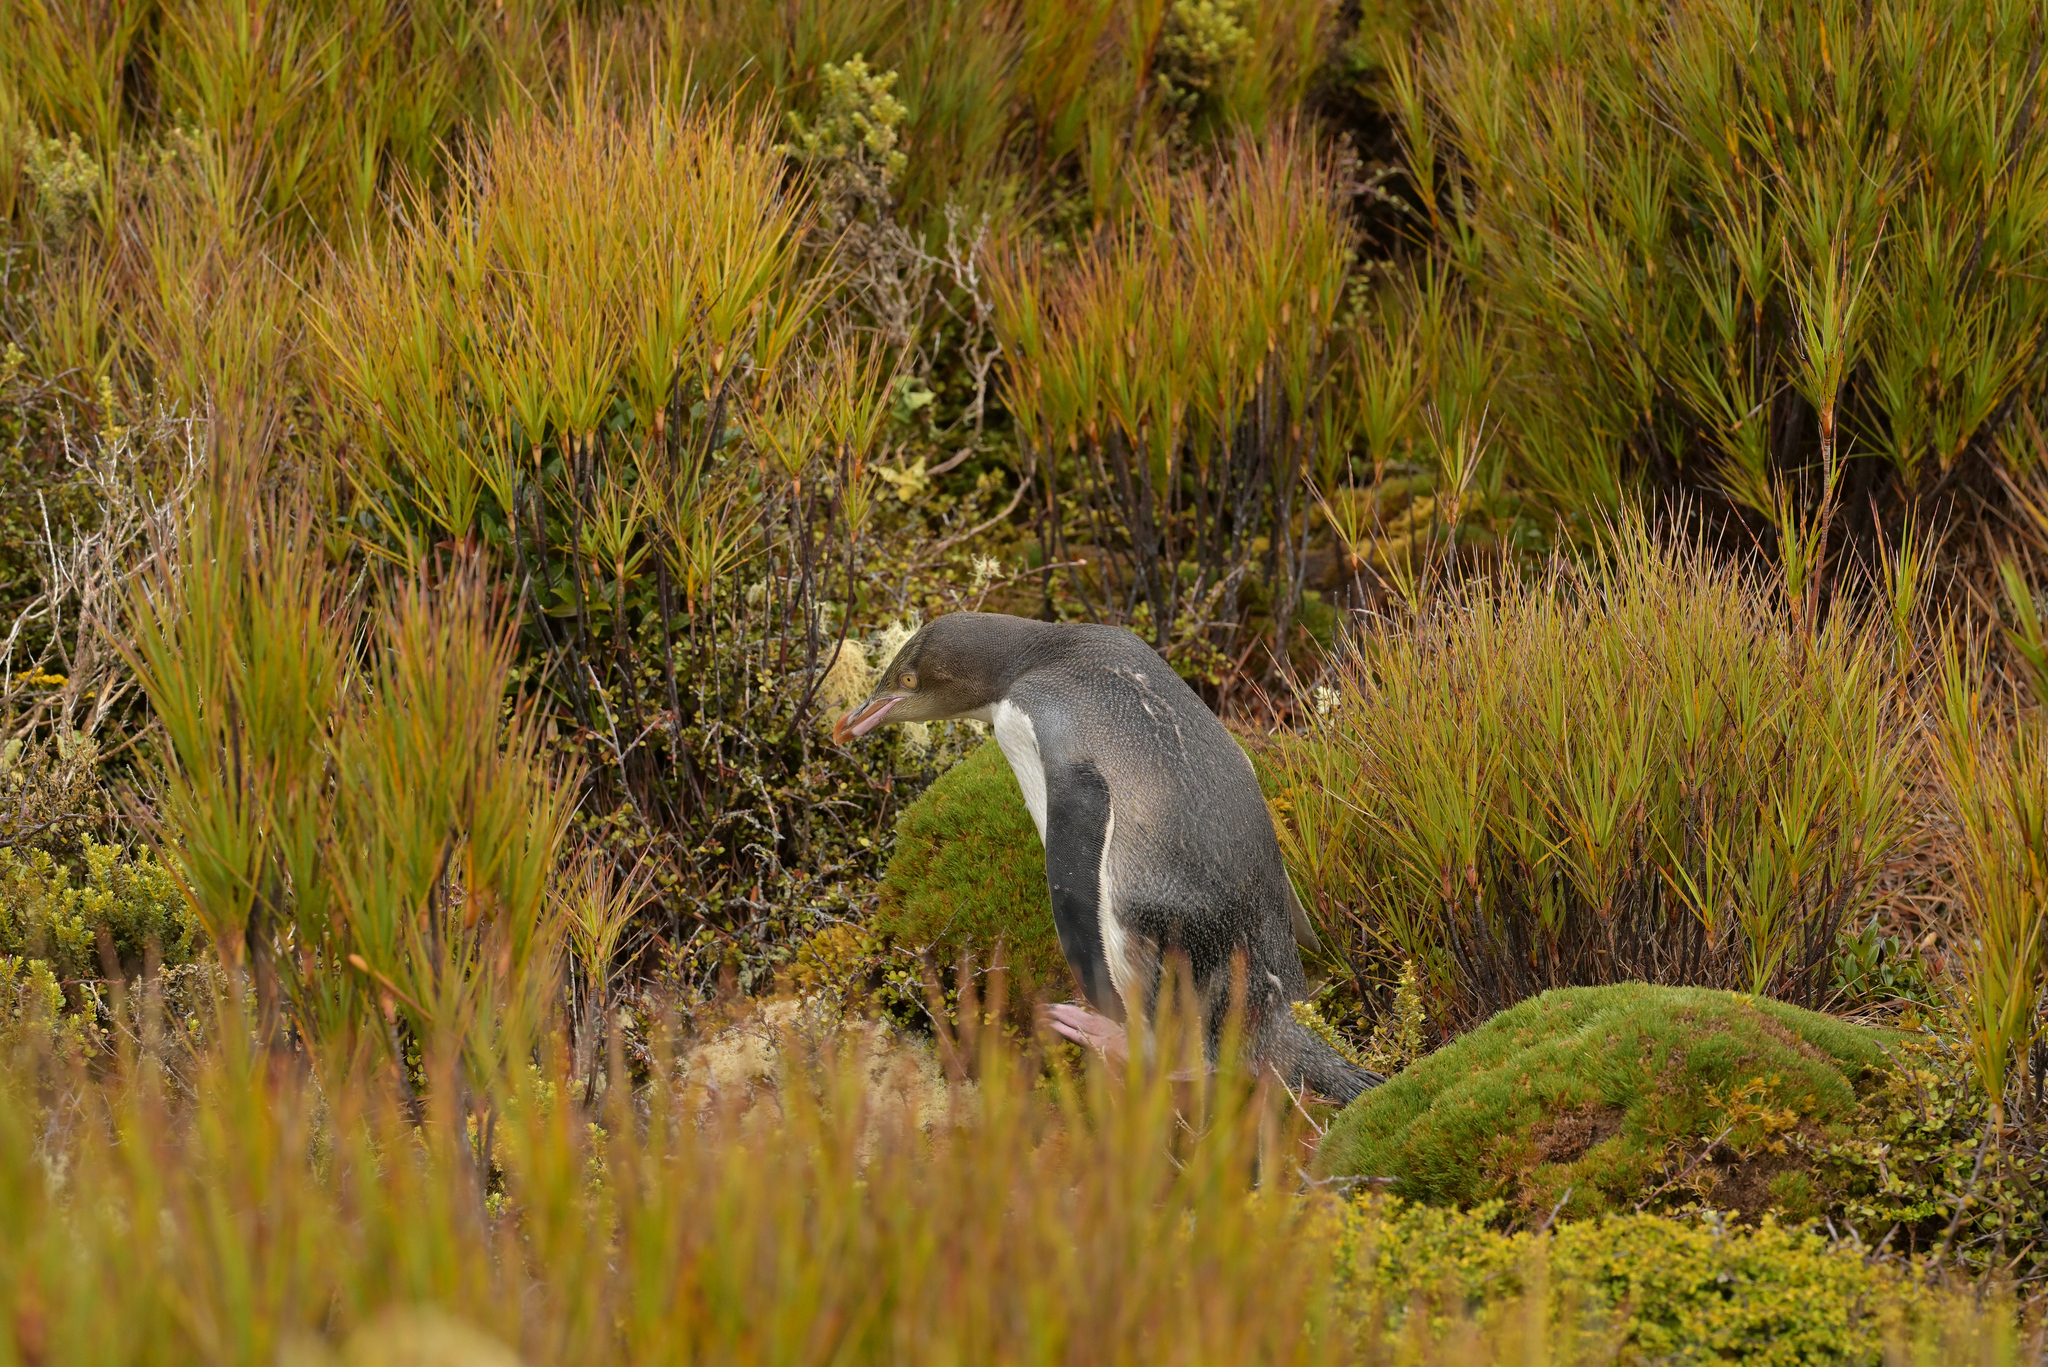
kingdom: Animalia
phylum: Chordata
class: Aves
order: Sphenisciformes
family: Spheniscidae
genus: Megadyptes
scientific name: Megadyptes antipodes
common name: Yellow-eyed penguin
